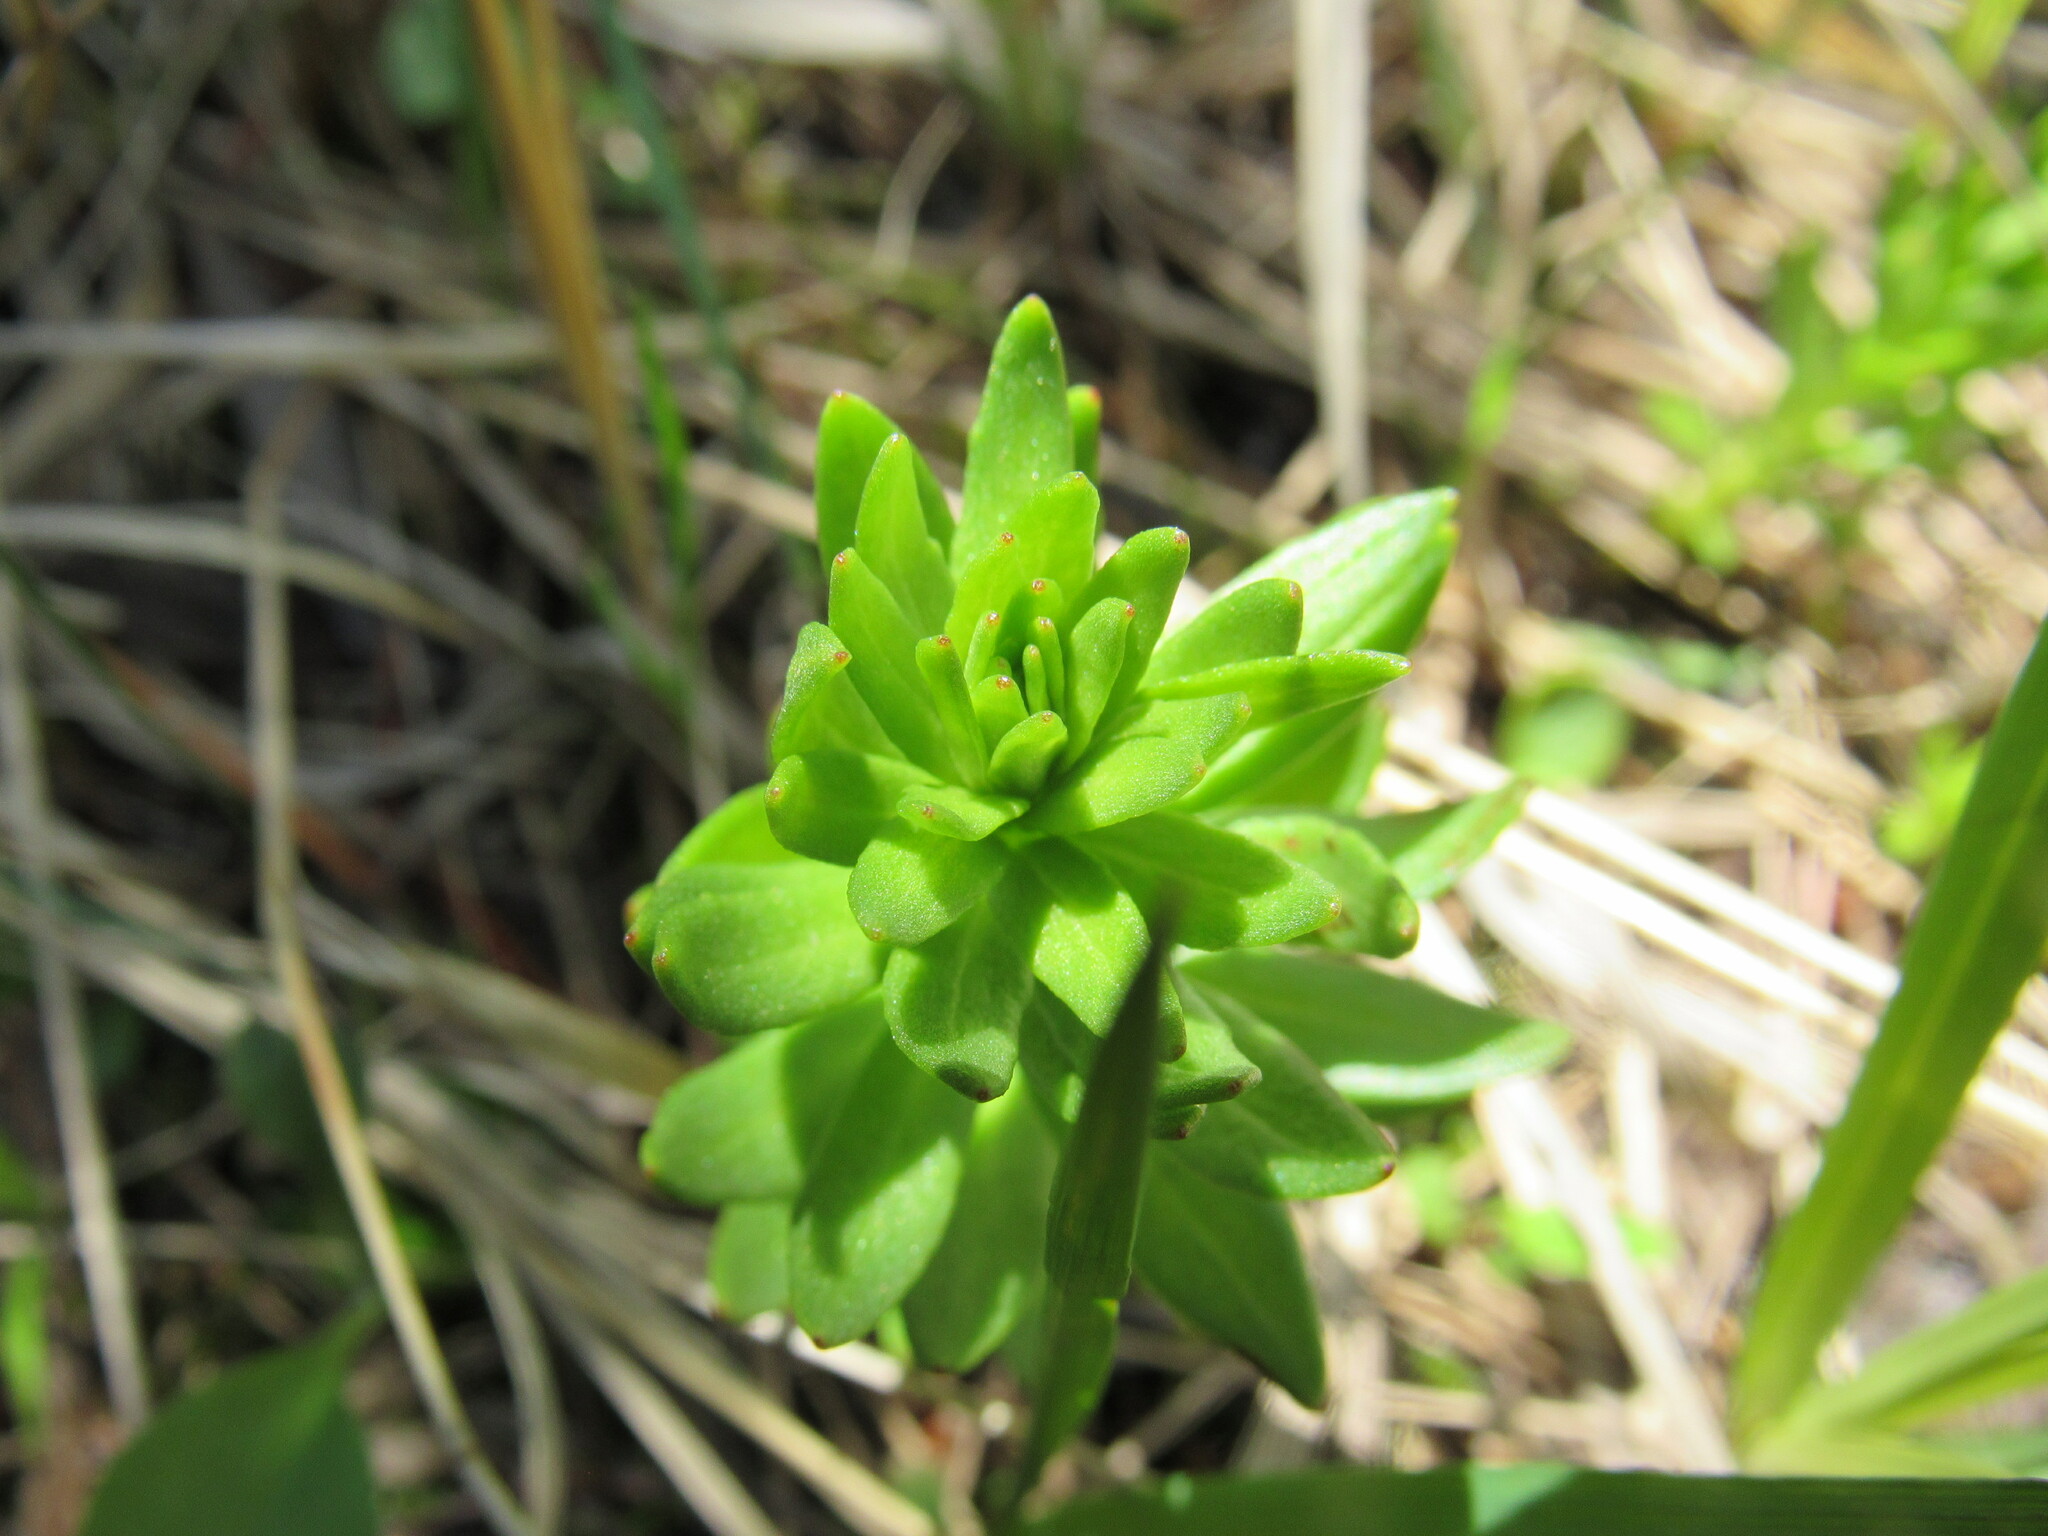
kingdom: Plantae
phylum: Tracheophyta
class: Magnoliopsida
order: Saxifragales
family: Crassulaceae
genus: Rhodiola
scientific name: Rhodiola rhodantha
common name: Red orpine
